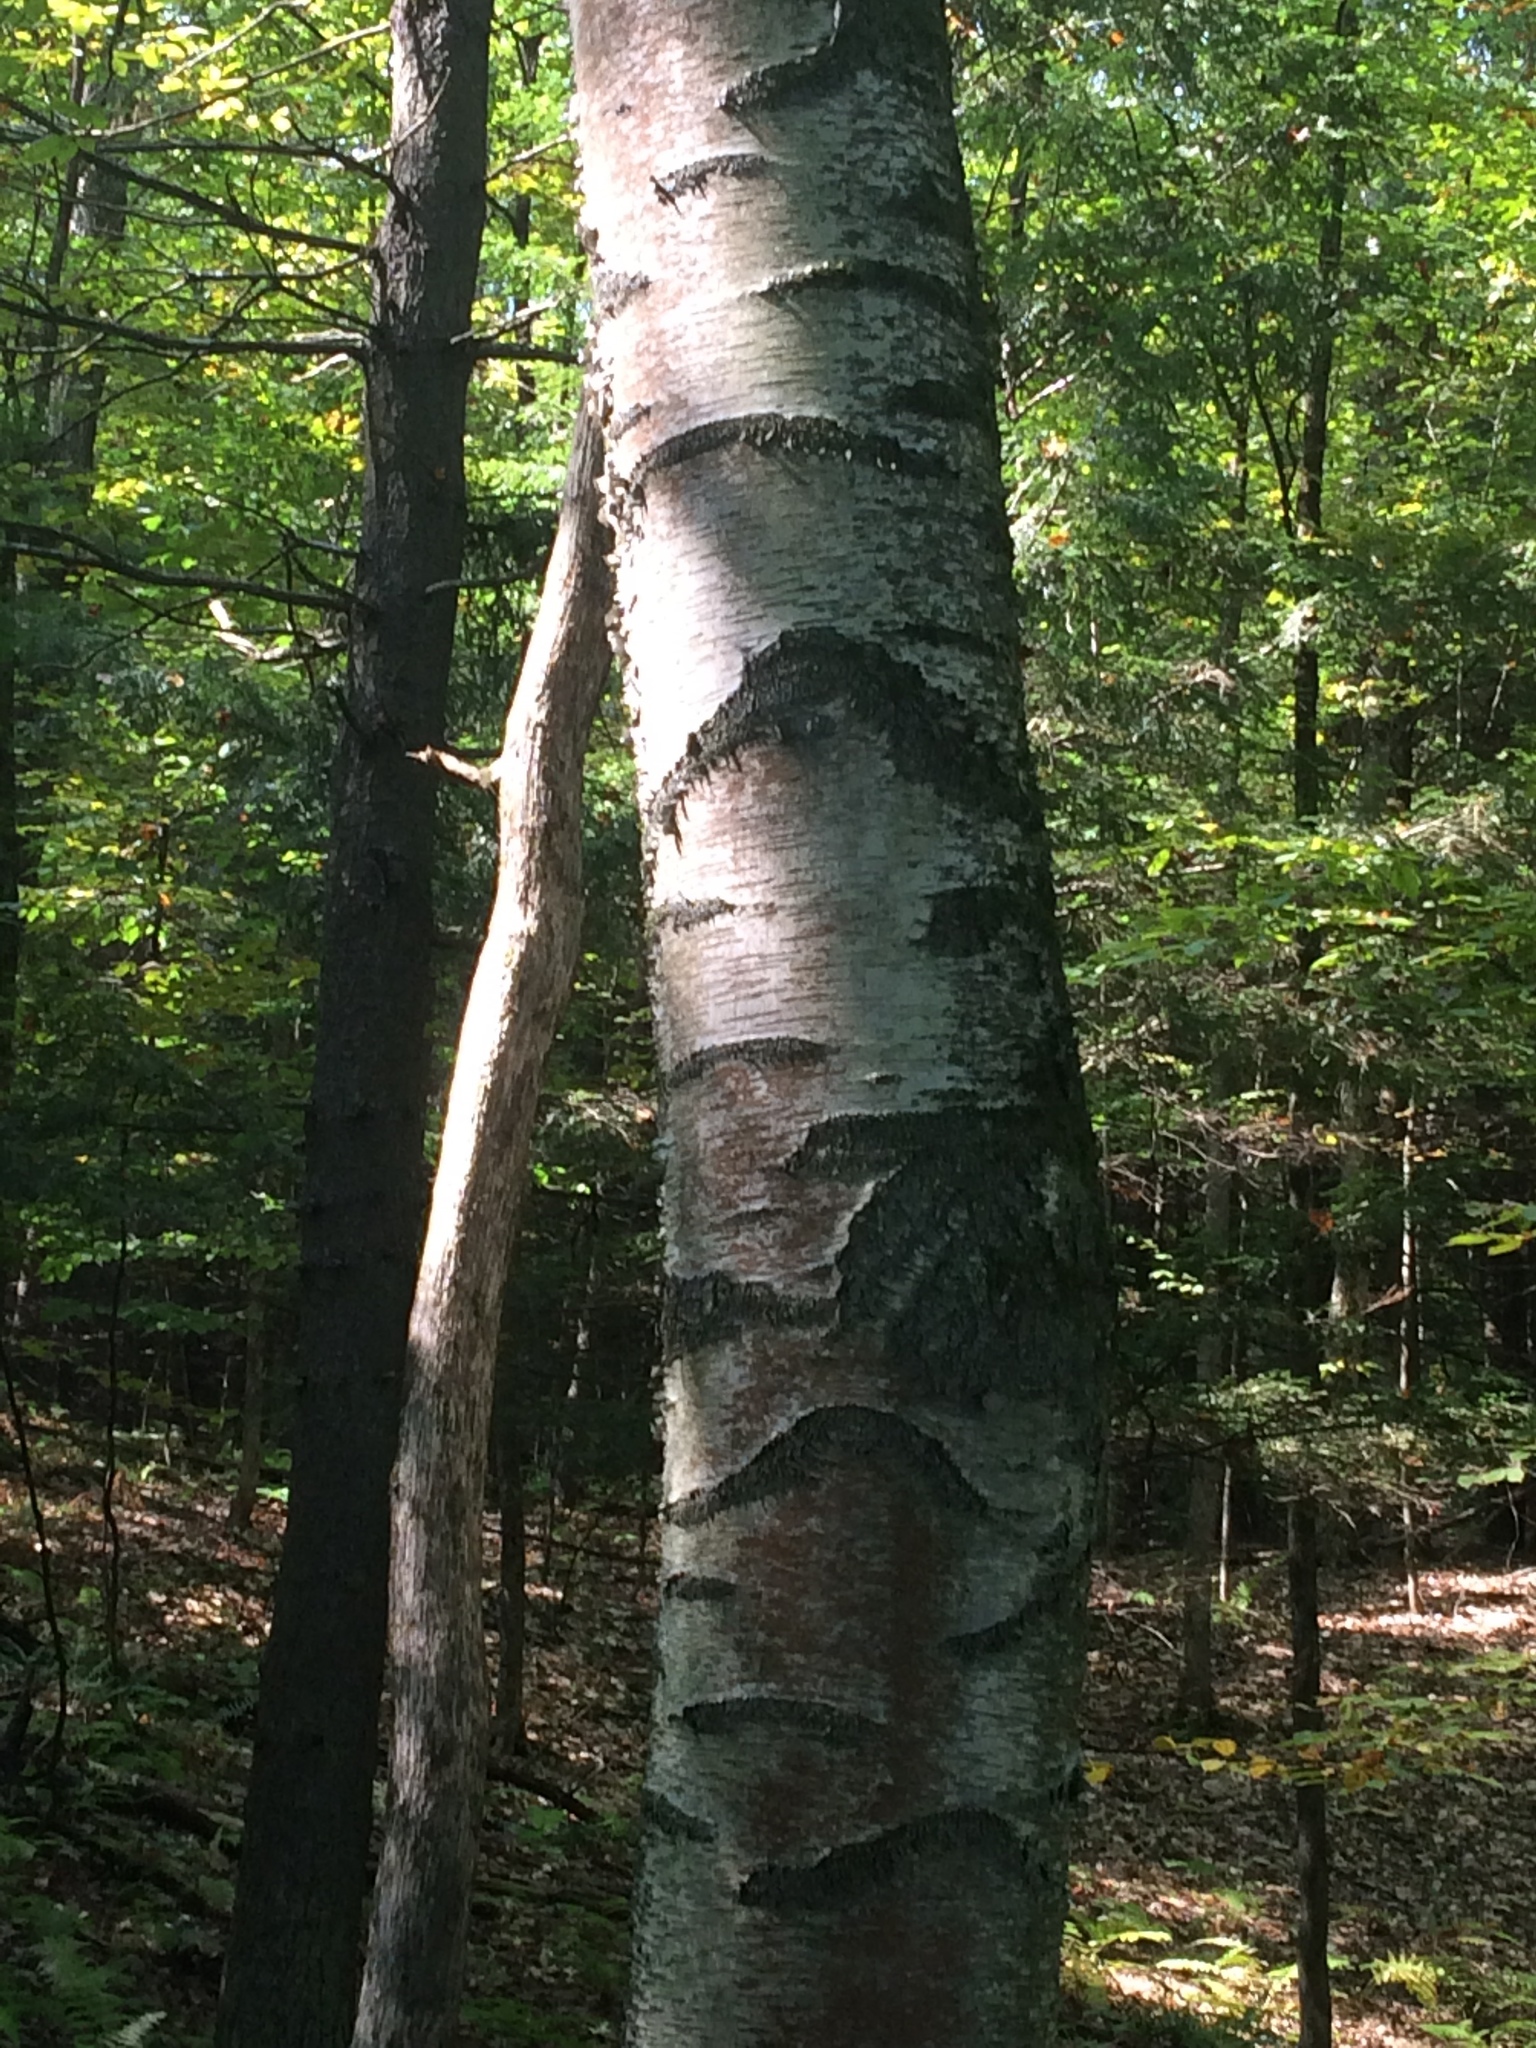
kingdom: Plantae
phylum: Tracheophyta
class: Magnoliopsida
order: Fagales
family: Betulaceae
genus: Betula
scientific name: Betula populifolia
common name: Fire birch
